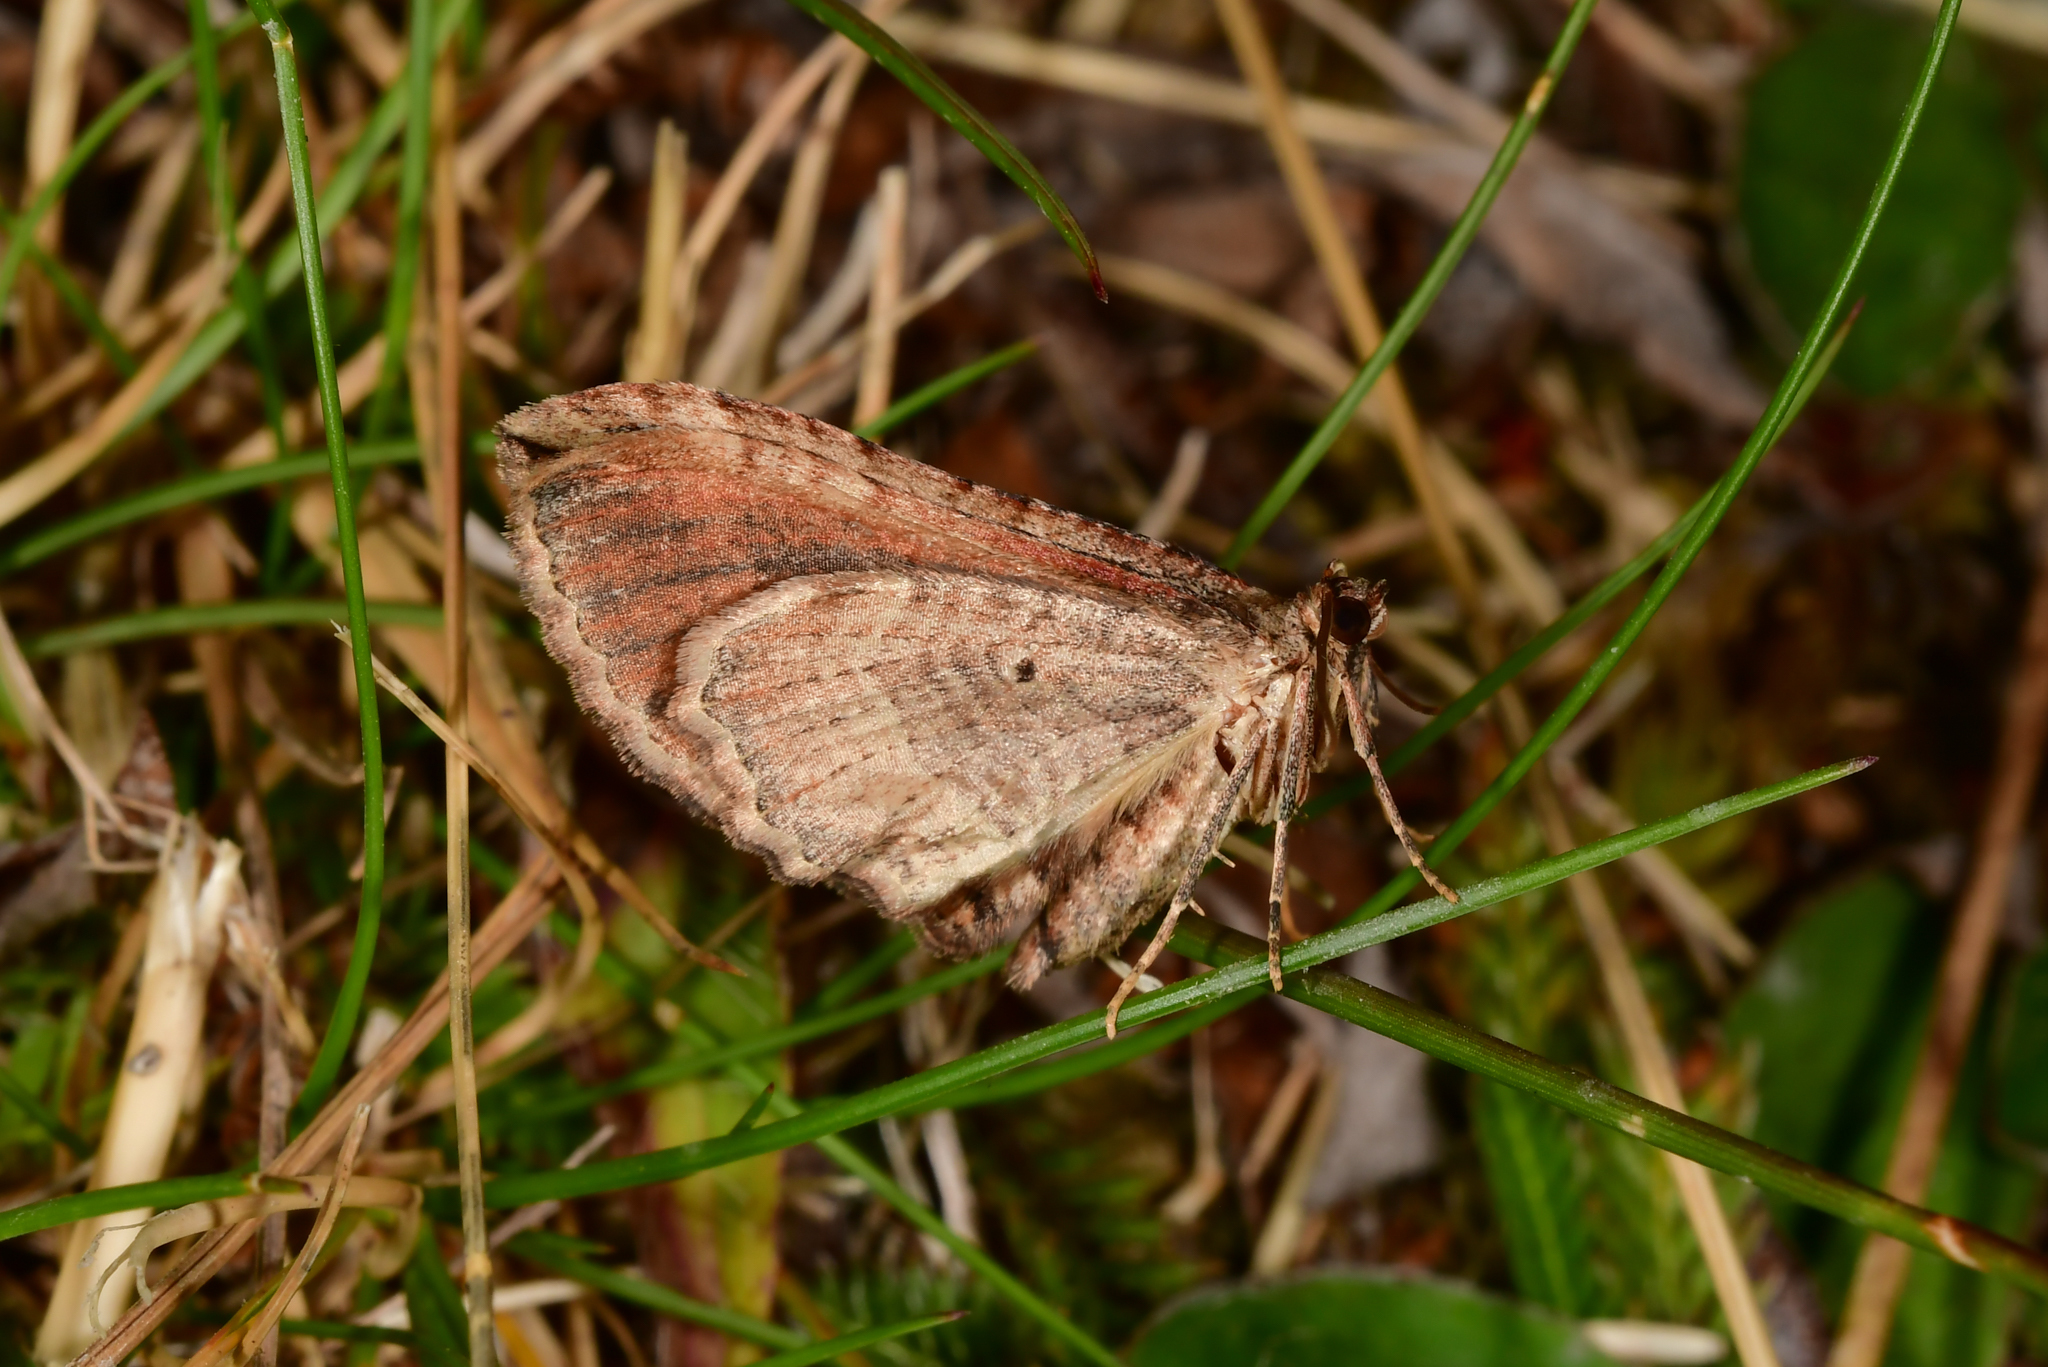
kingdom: Animalia
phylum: Arthropoda
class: Insecta
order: Lepidoptera
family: Geometridae
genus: Austrocidaria
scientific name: Austrocidaria gobiata
